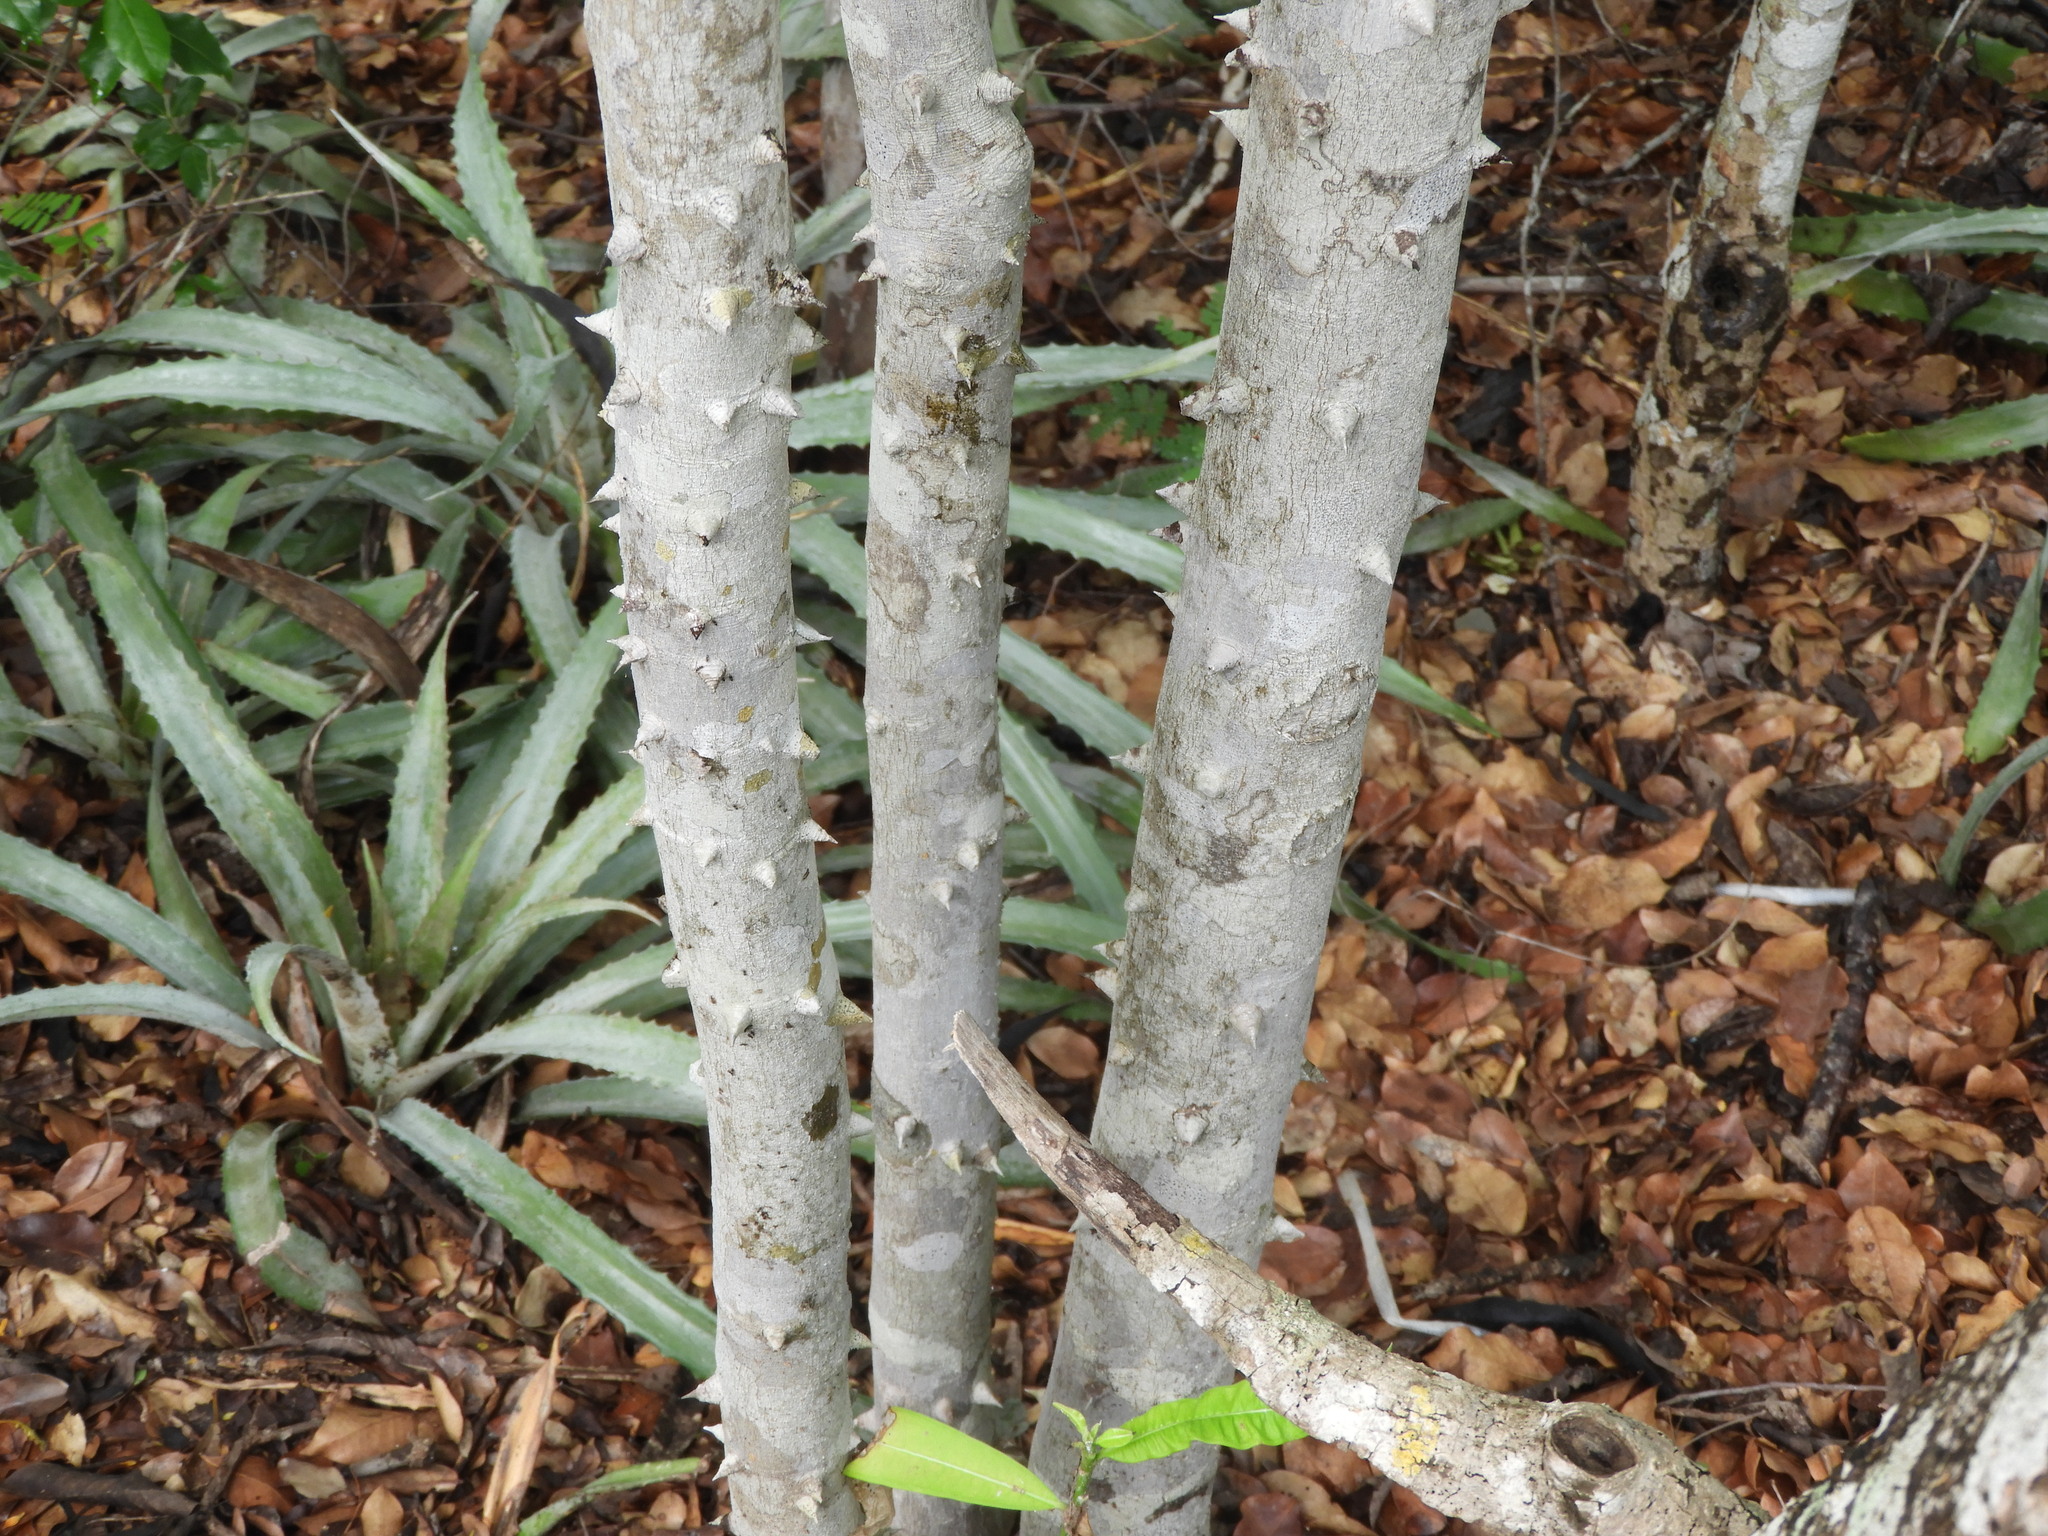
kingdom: Plantae
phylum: Tracheophyta
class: Magnoliopsida
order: Sapindales
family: Rutaceae
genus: Zanthoxylum
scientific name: Zanthoxylum arborescens
